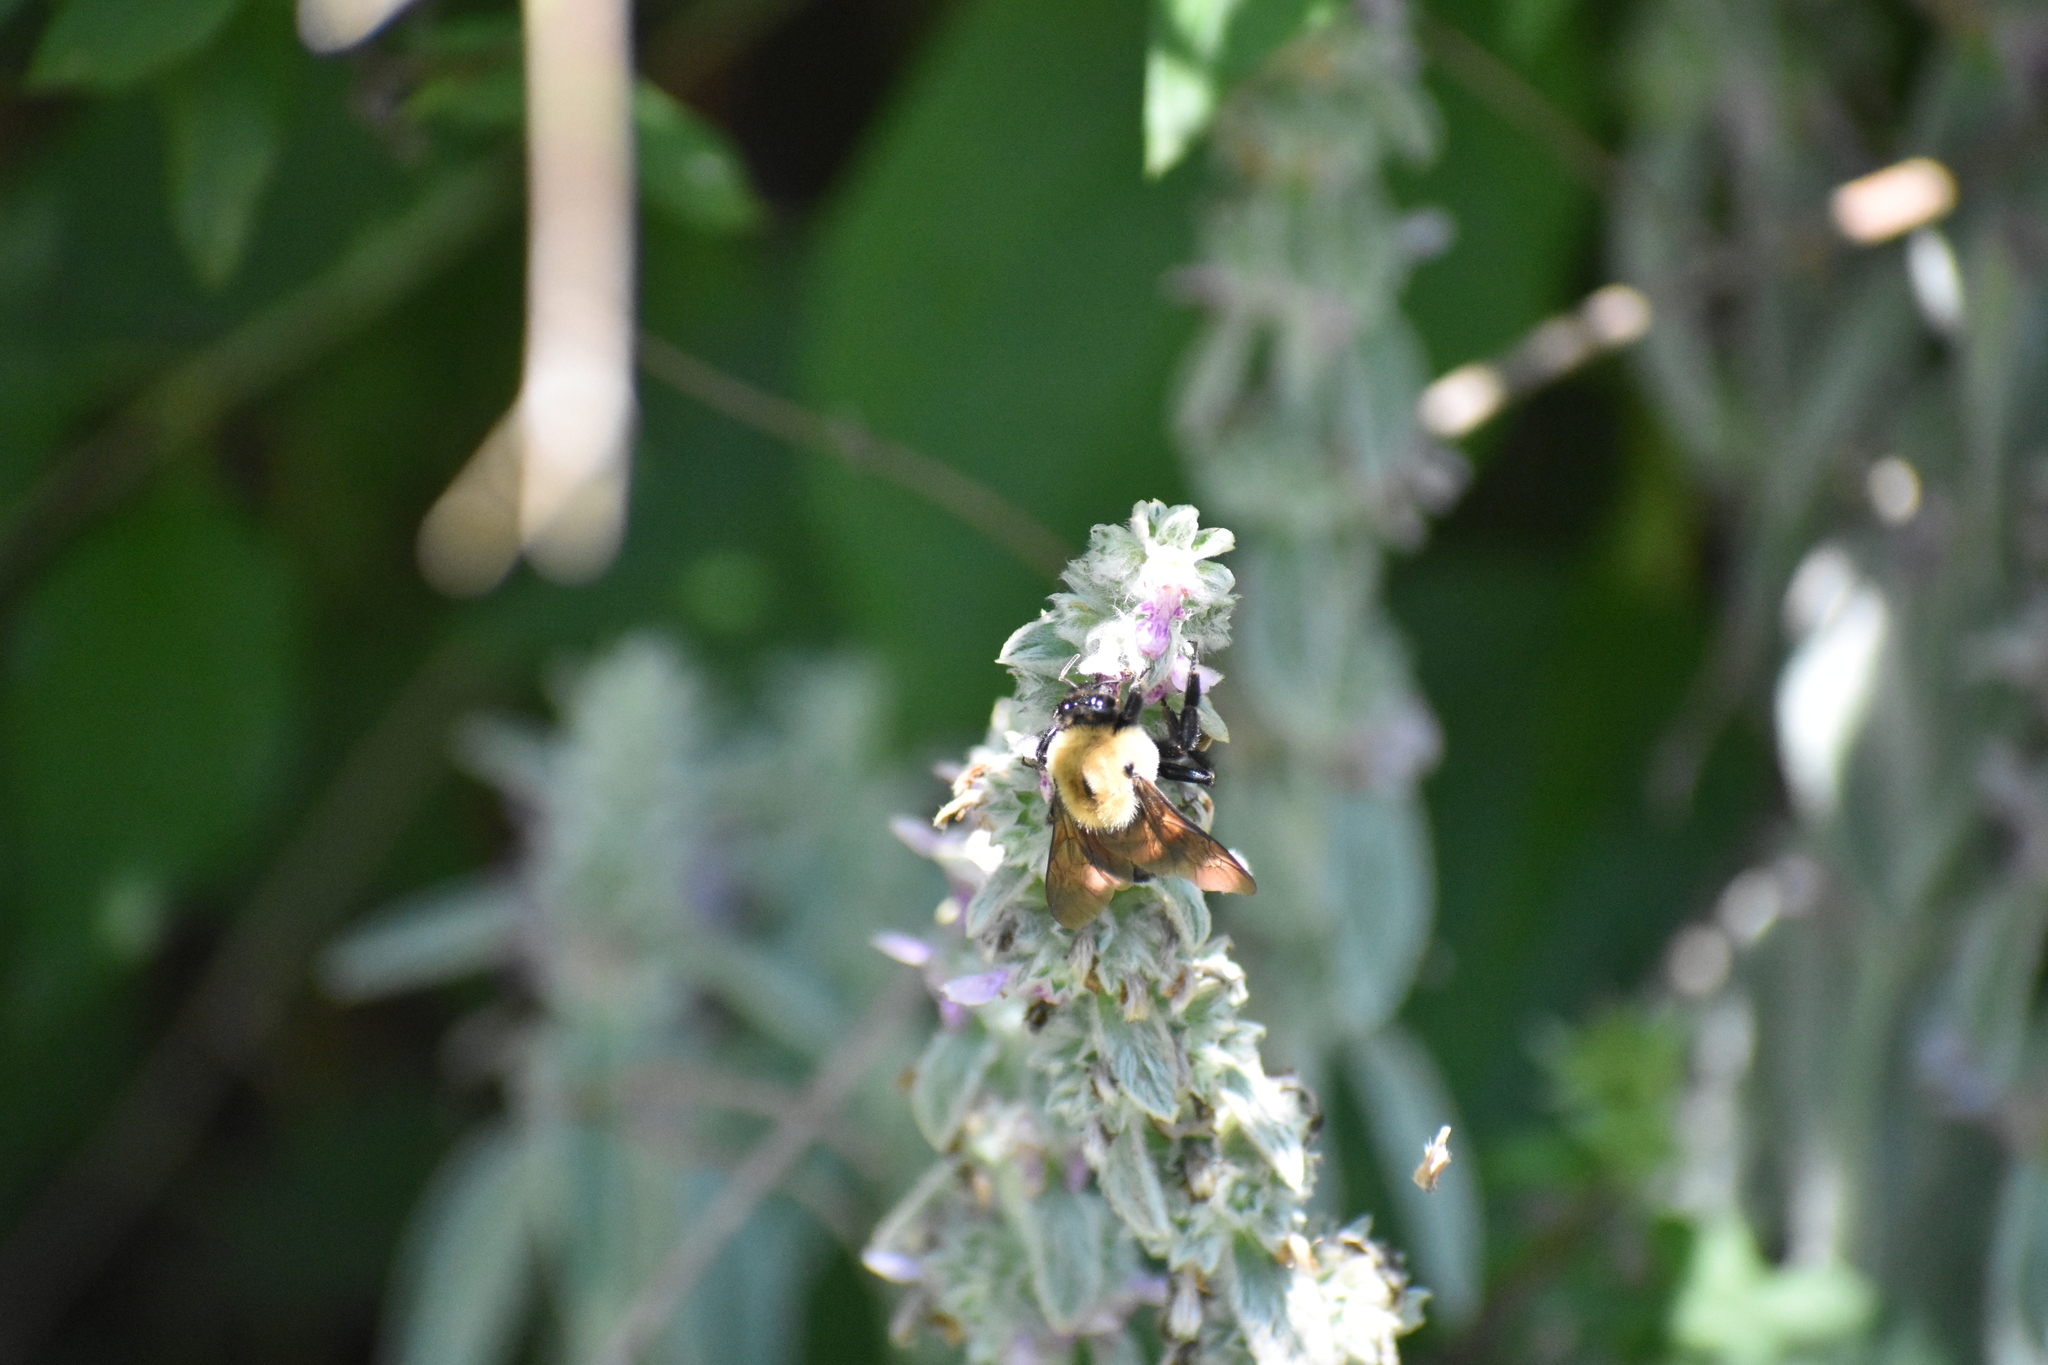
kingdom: Animalia
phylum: Arthropoda
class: Insecta
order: Hymenoptera
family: Apidae
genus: Bombus
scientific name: Bombus griseocollis
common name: Brown-belted bumble bee
